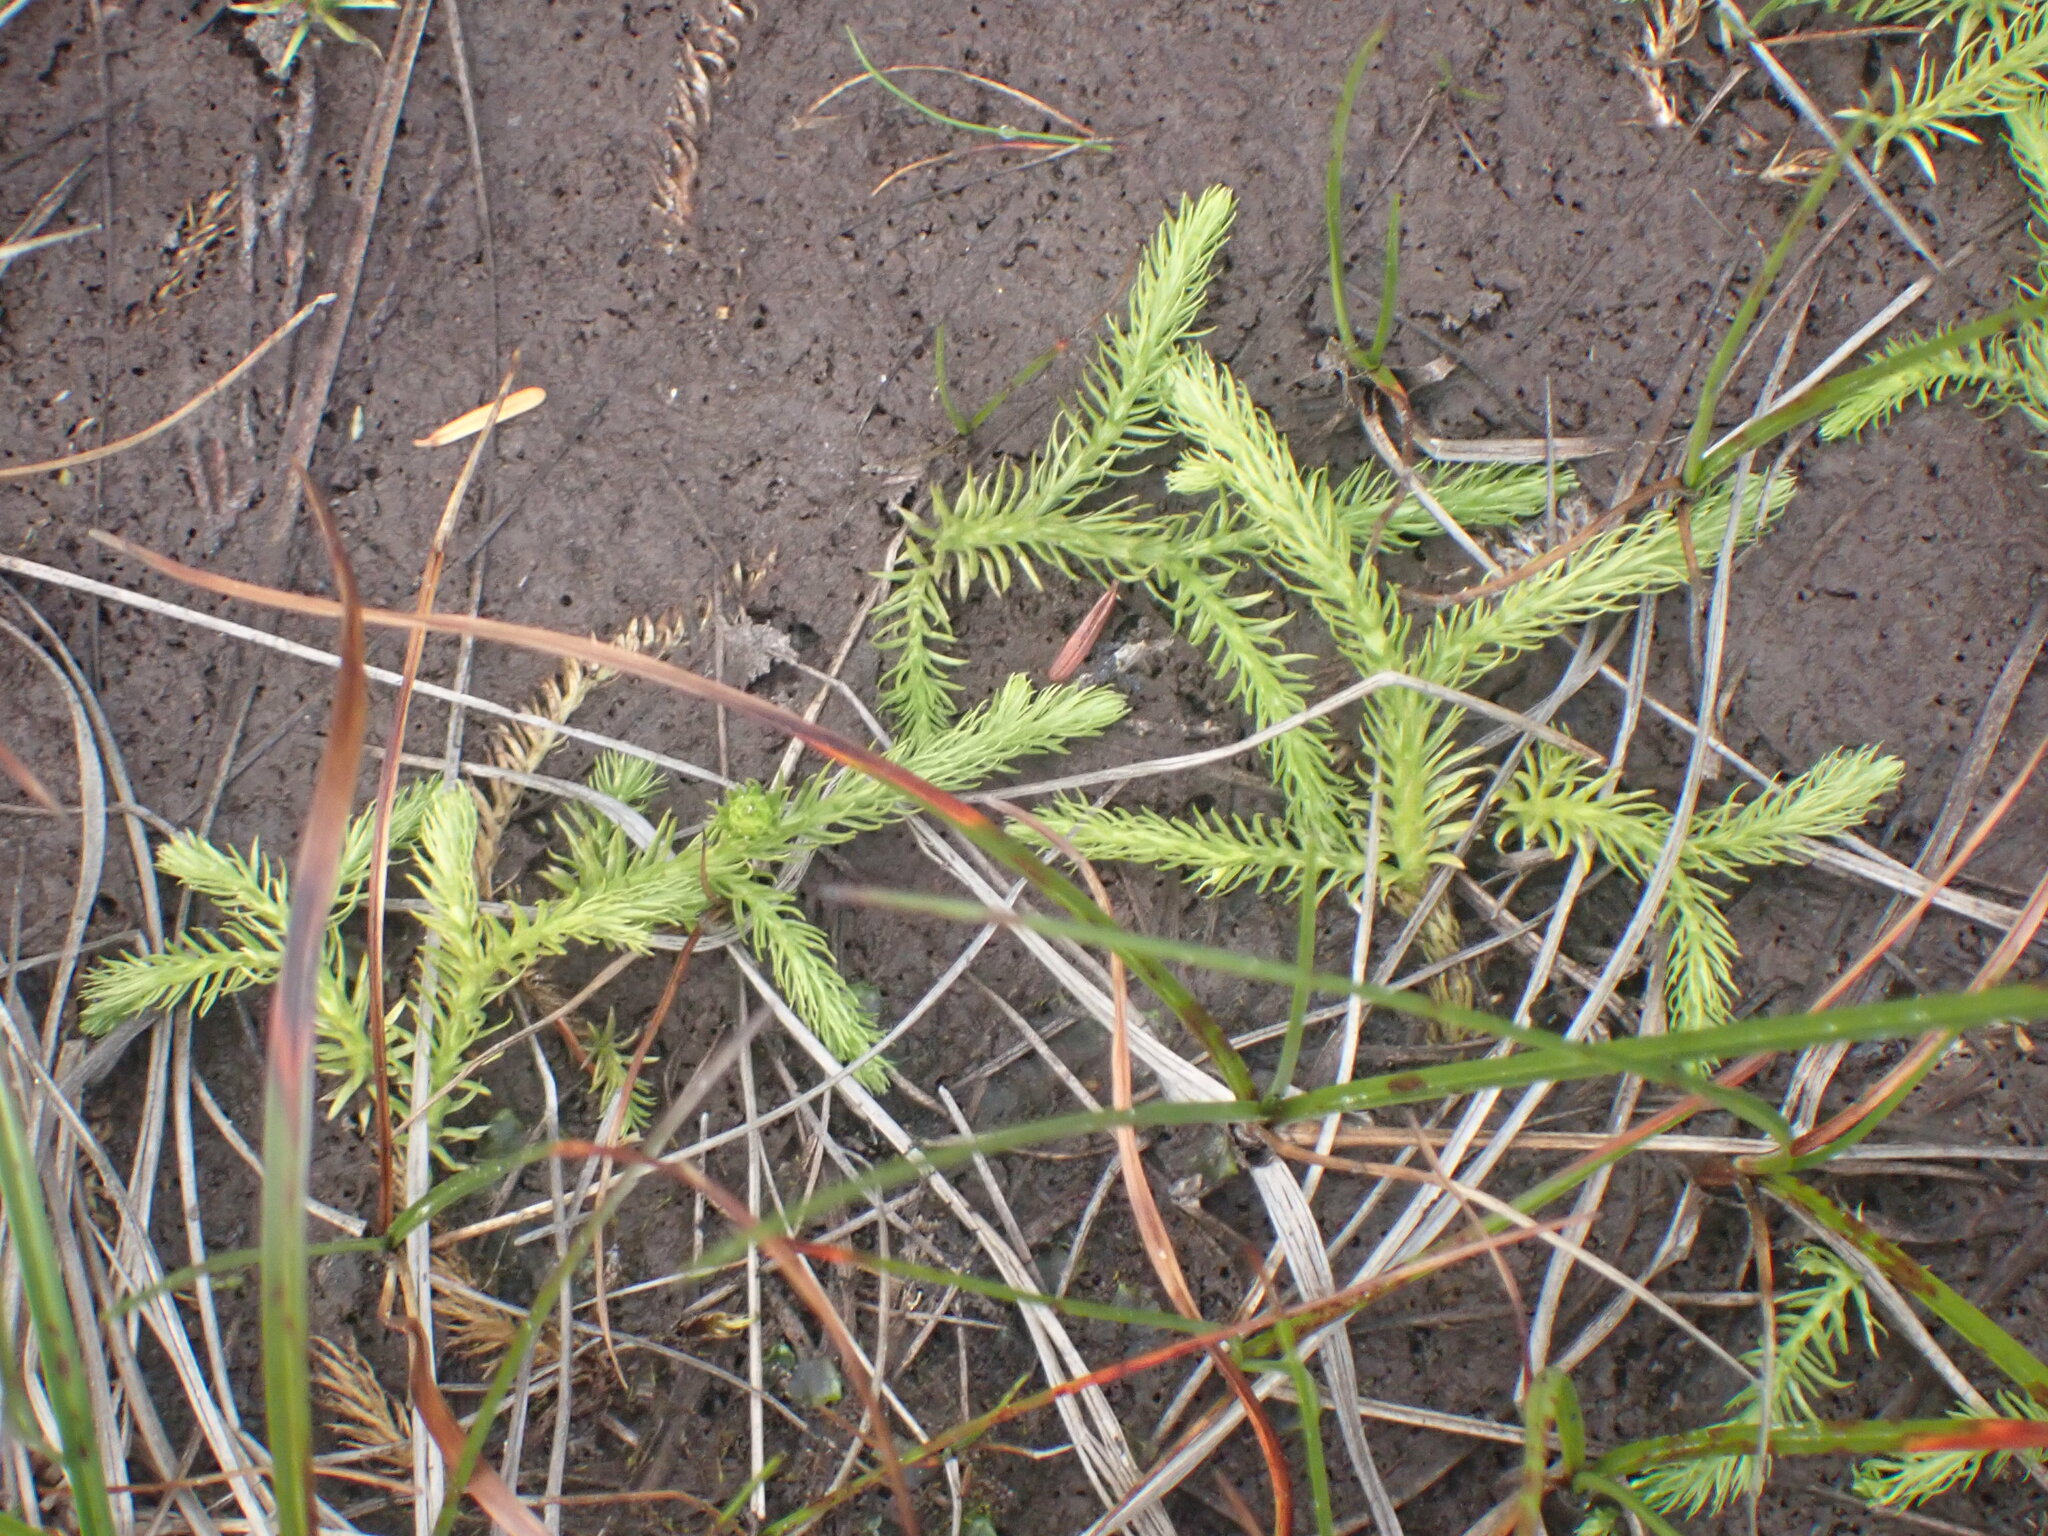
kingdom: Plantae
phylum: Tracheophyta
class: Lycopodiopsida
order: Lycopodiales
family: Lycopodiaceae
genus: Lycopodiella
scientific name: Lycopodiella inundata
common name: Marsh clubmoss
